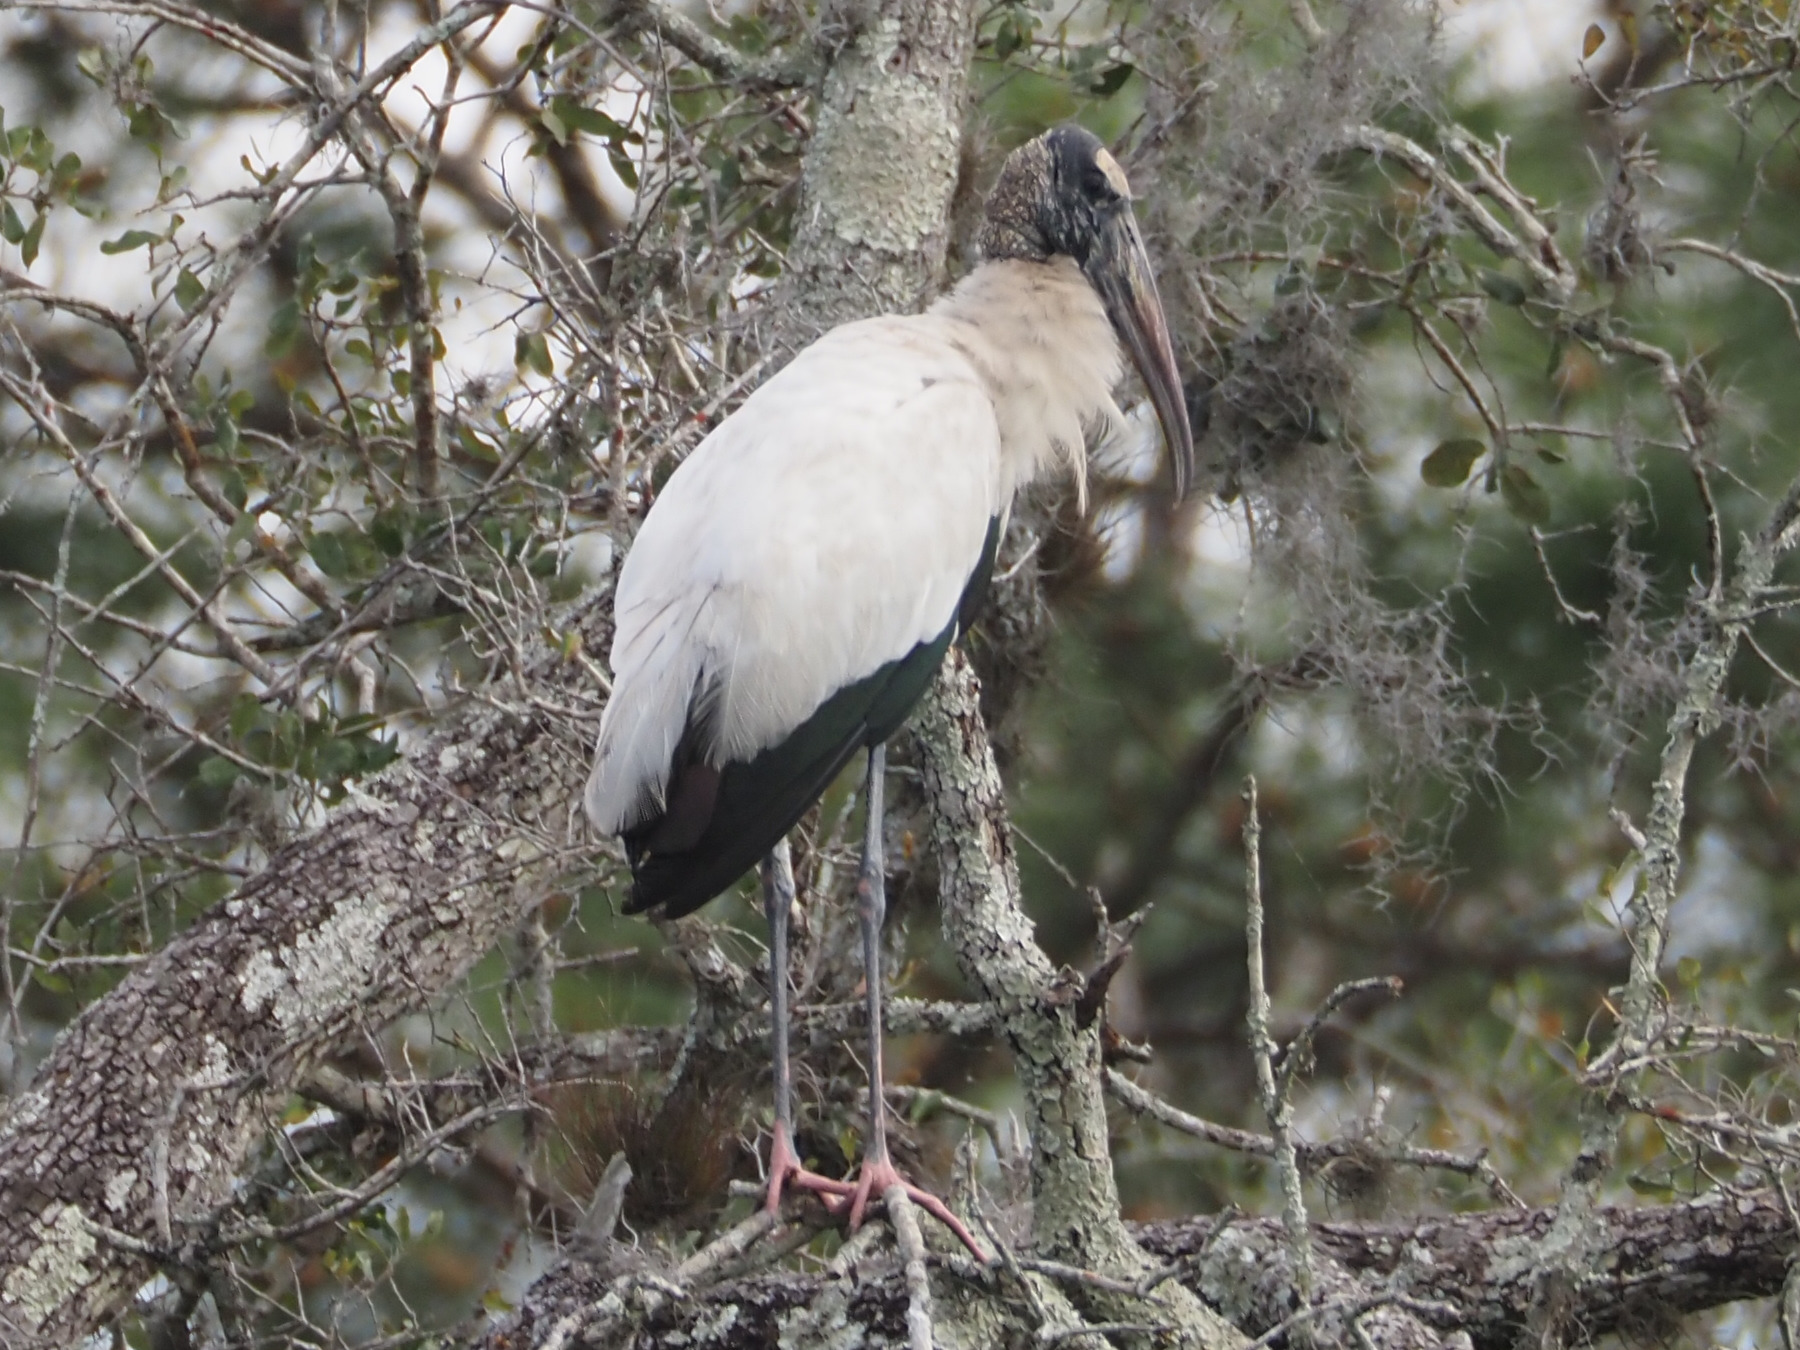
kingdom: Animalia
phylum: Chordata
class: Aves
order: Ciconiiformes
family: Ciconiidae
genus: Mycteria
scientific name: Mycteria americana
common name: Wood stork
